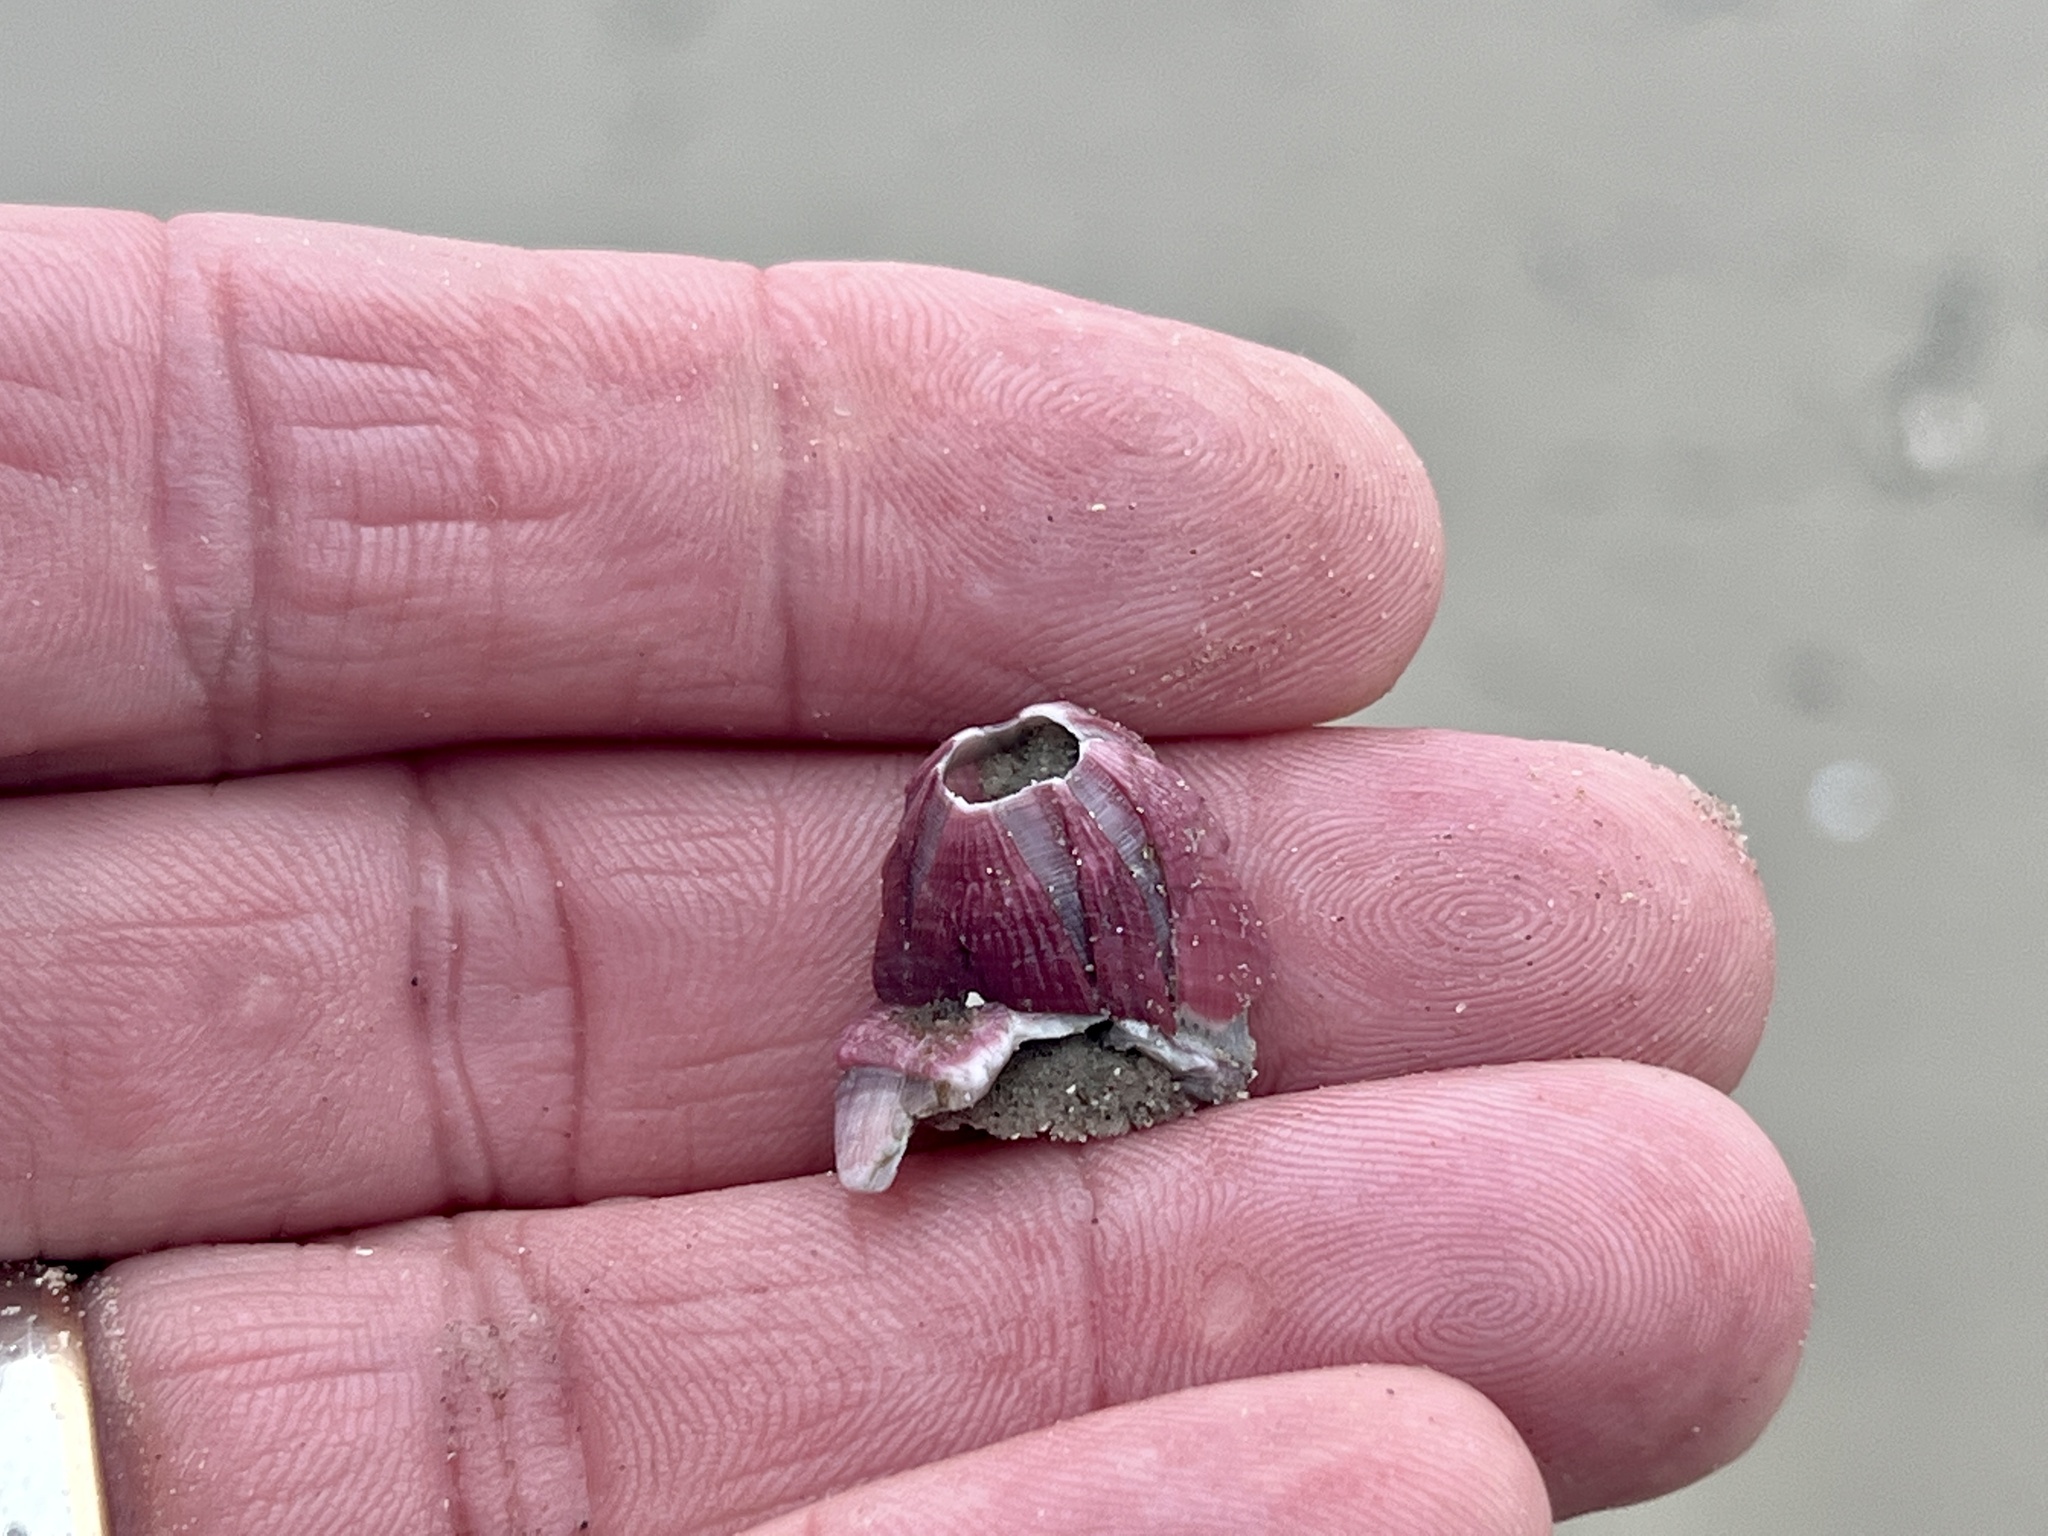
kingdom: Animalia
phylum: Arthropoda
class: Maxillopoda
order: Sessilia
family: Balanidae
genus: Megabalanus
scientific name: Megabalanus tintinnabulum
